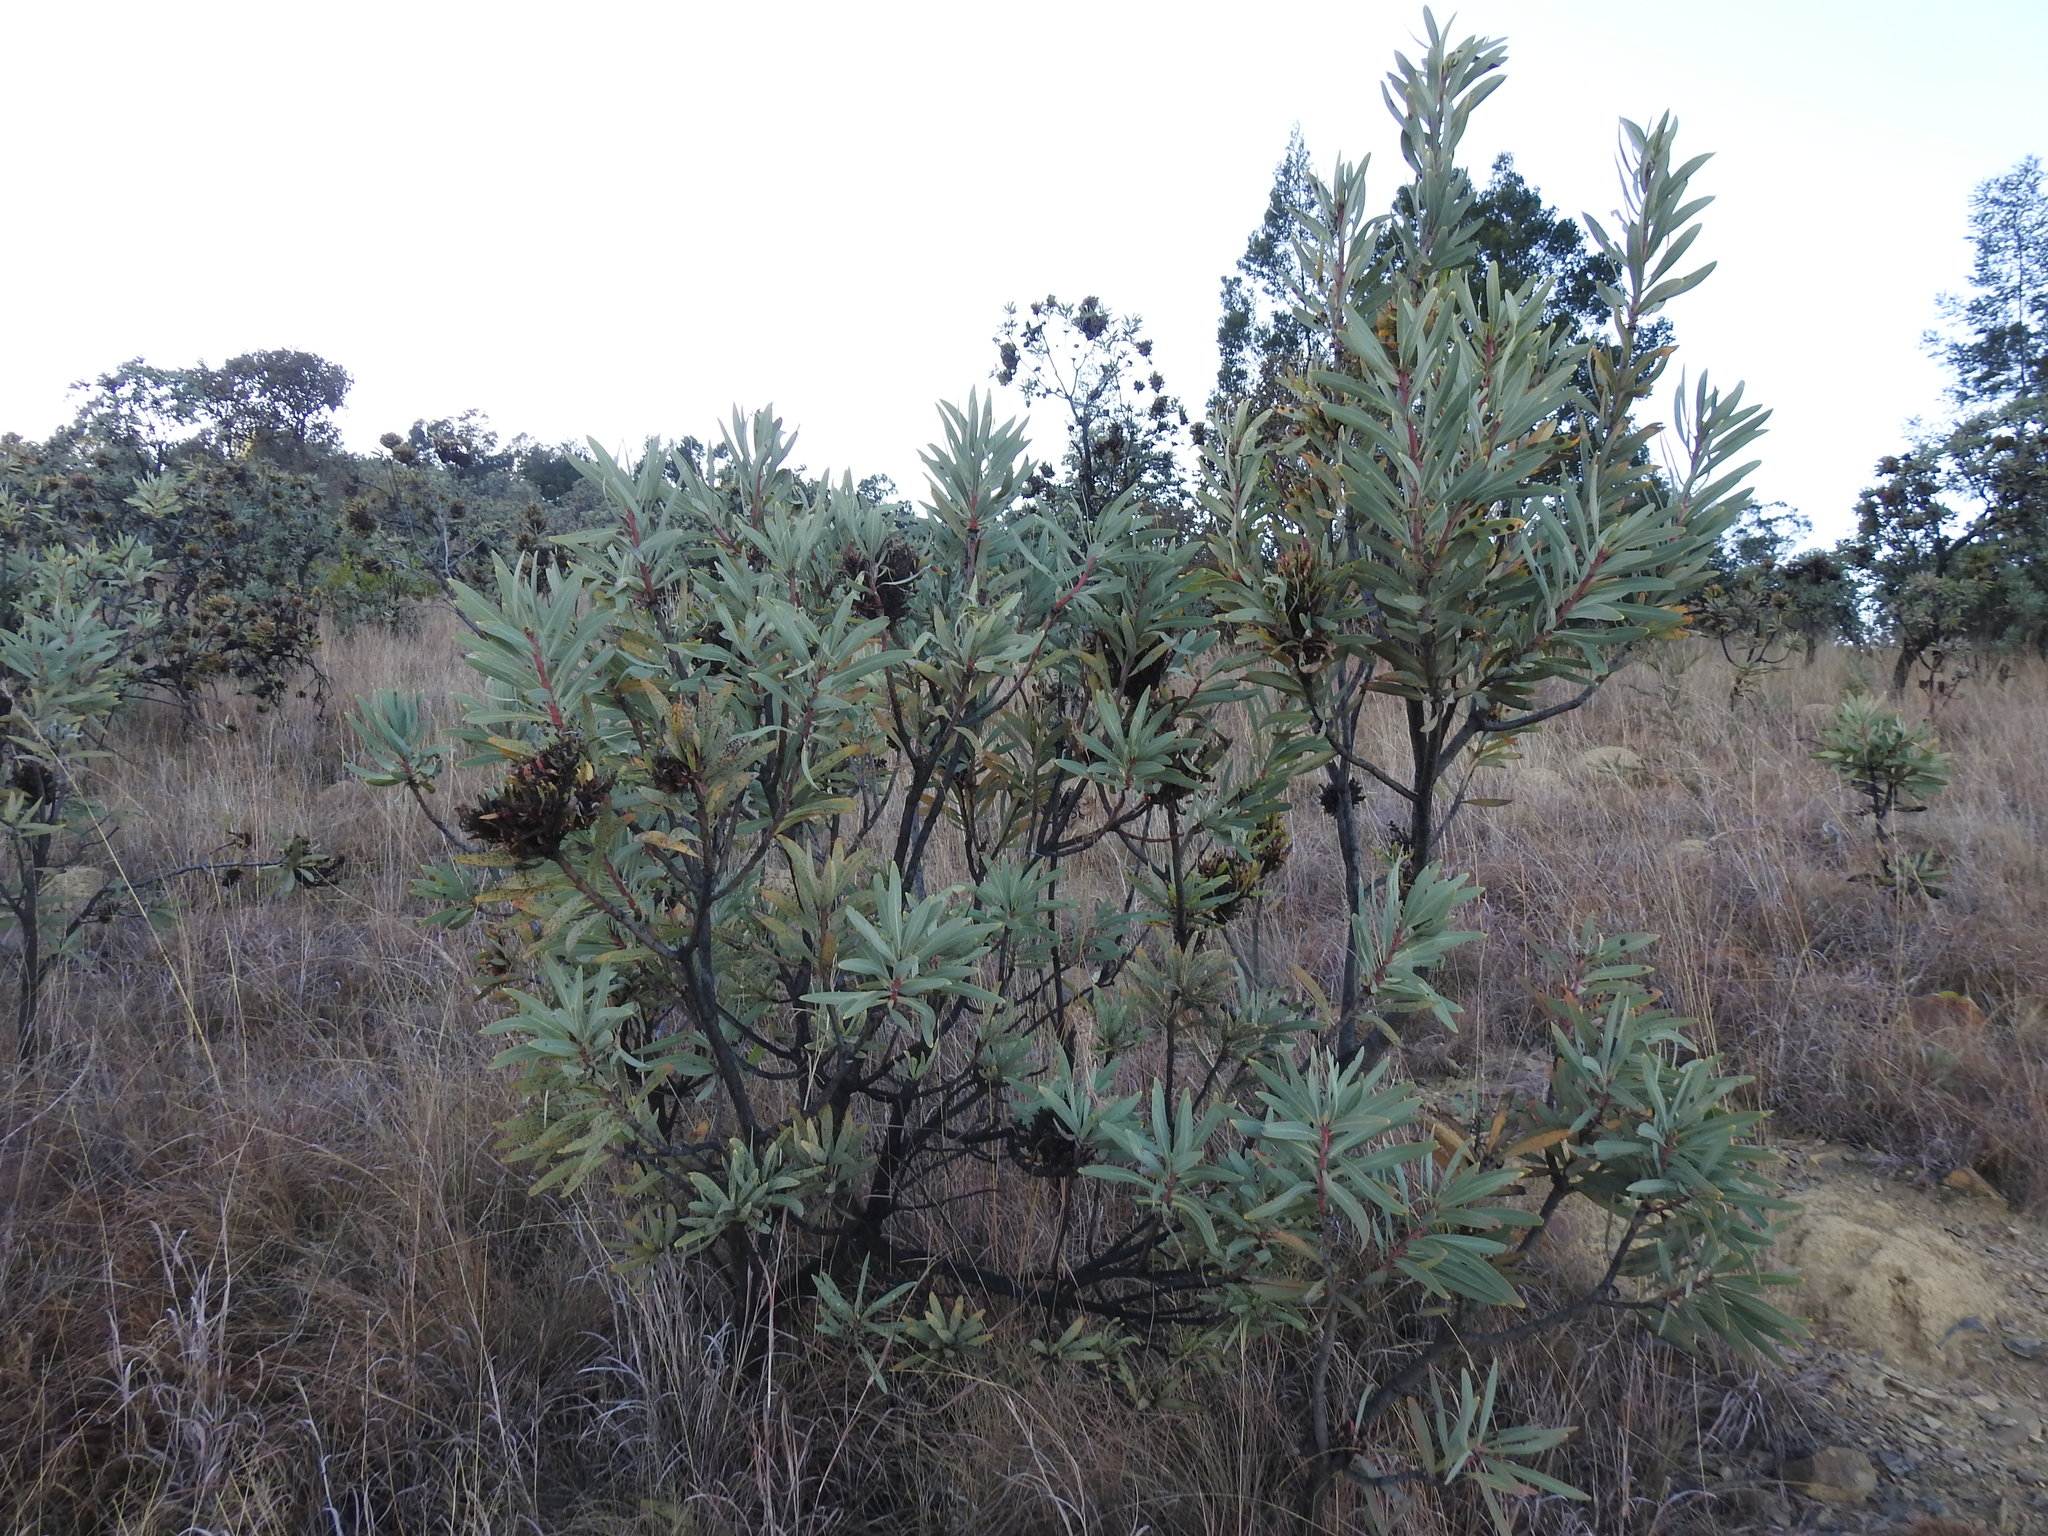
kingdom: Plantae
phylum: Tracheophyta
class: Magnoliopsida
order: Proteales
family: Proteaceae
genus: Protea
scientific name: Protea caffra
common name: Common sugarbush
